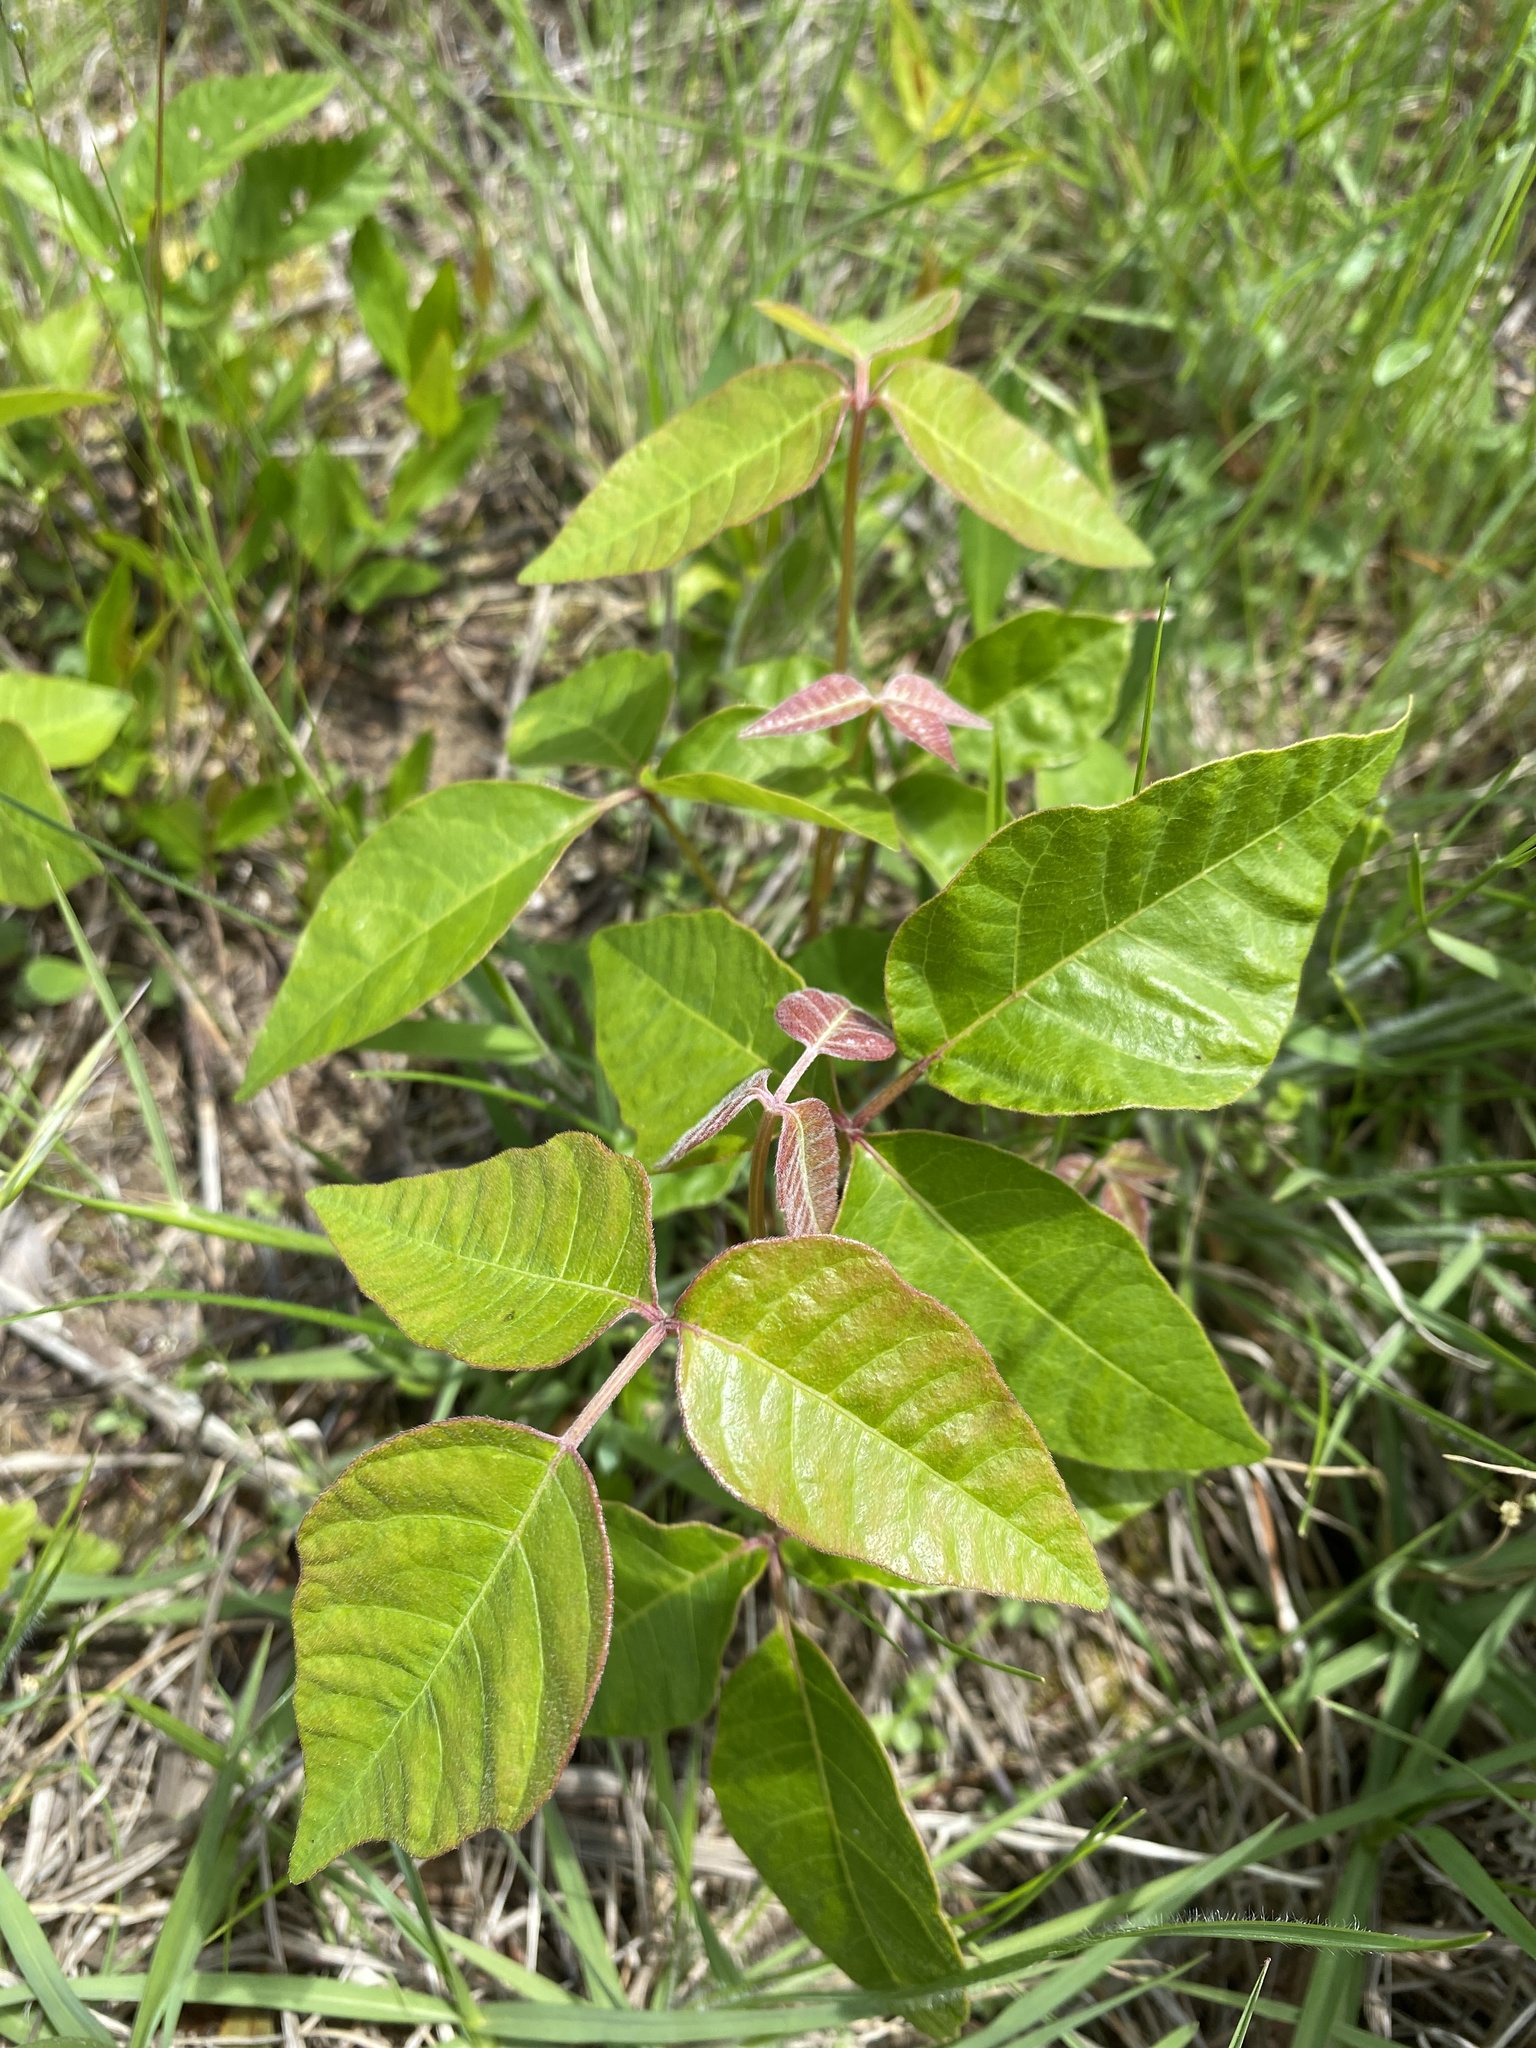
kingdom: Plantae
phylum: Tracheophyta
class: Magnoliopsida
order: Sapindales
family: Anacardiaceae
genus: Toxicodendron
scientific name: Toxicodendron radicans
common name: Poison ivy
